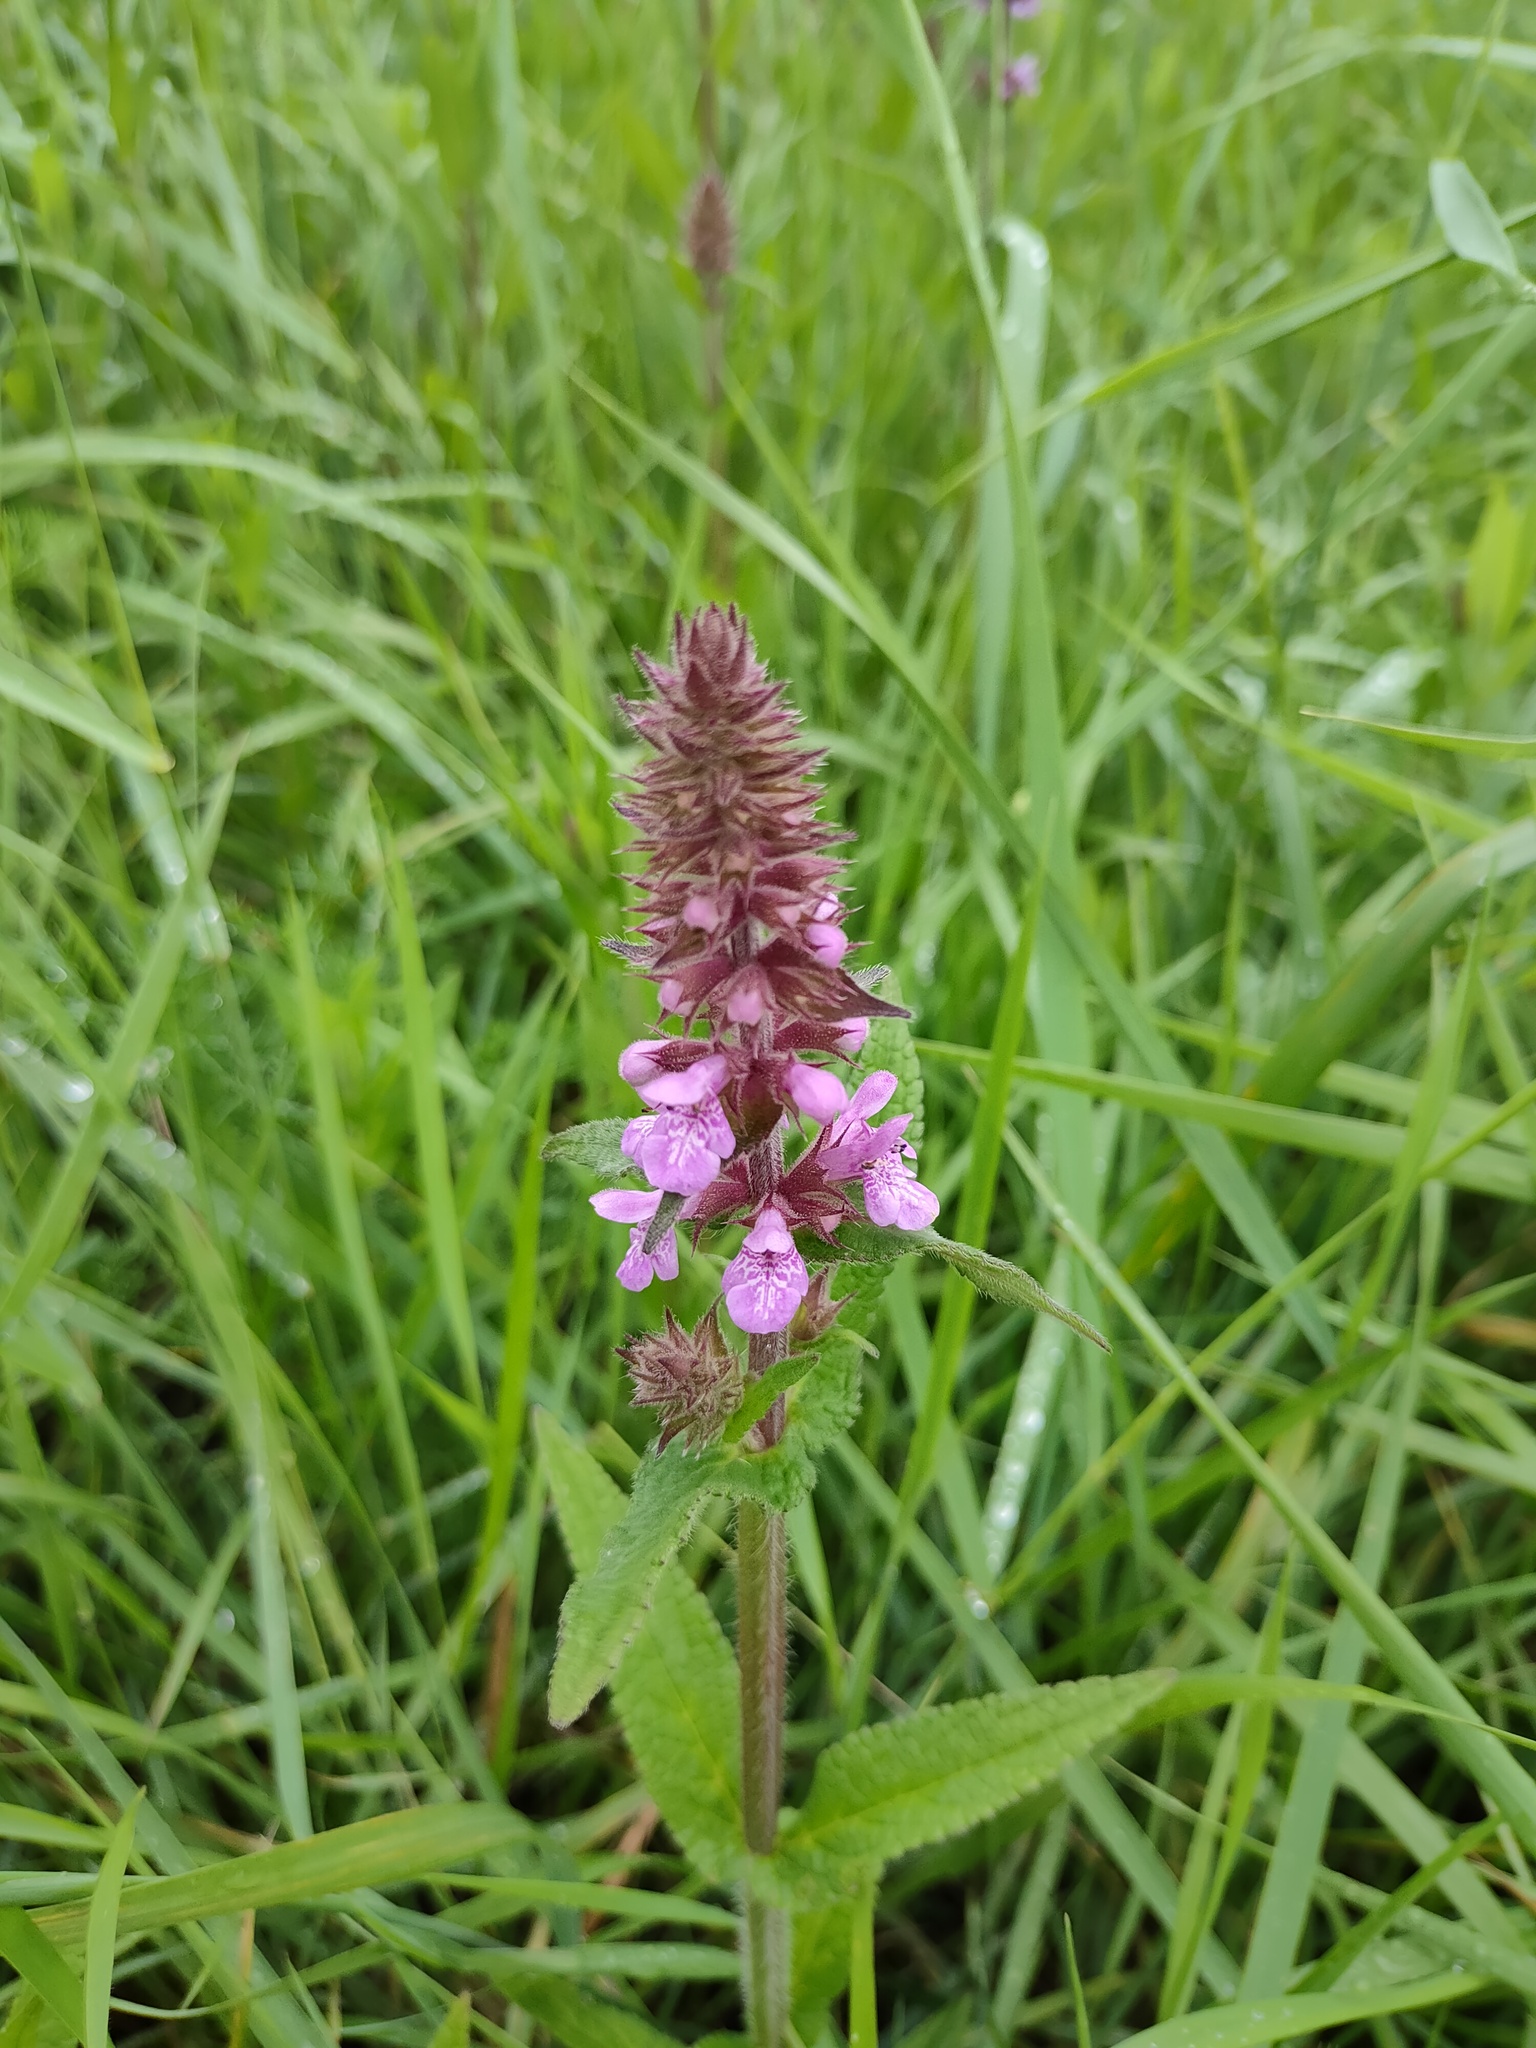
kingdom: Plantae
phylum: Tracheophyta
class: Magnoliopsida
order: Lamiales
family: Lamiaceae
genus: Stachys
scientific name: Stachys palustris
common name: Marsh woundwort
